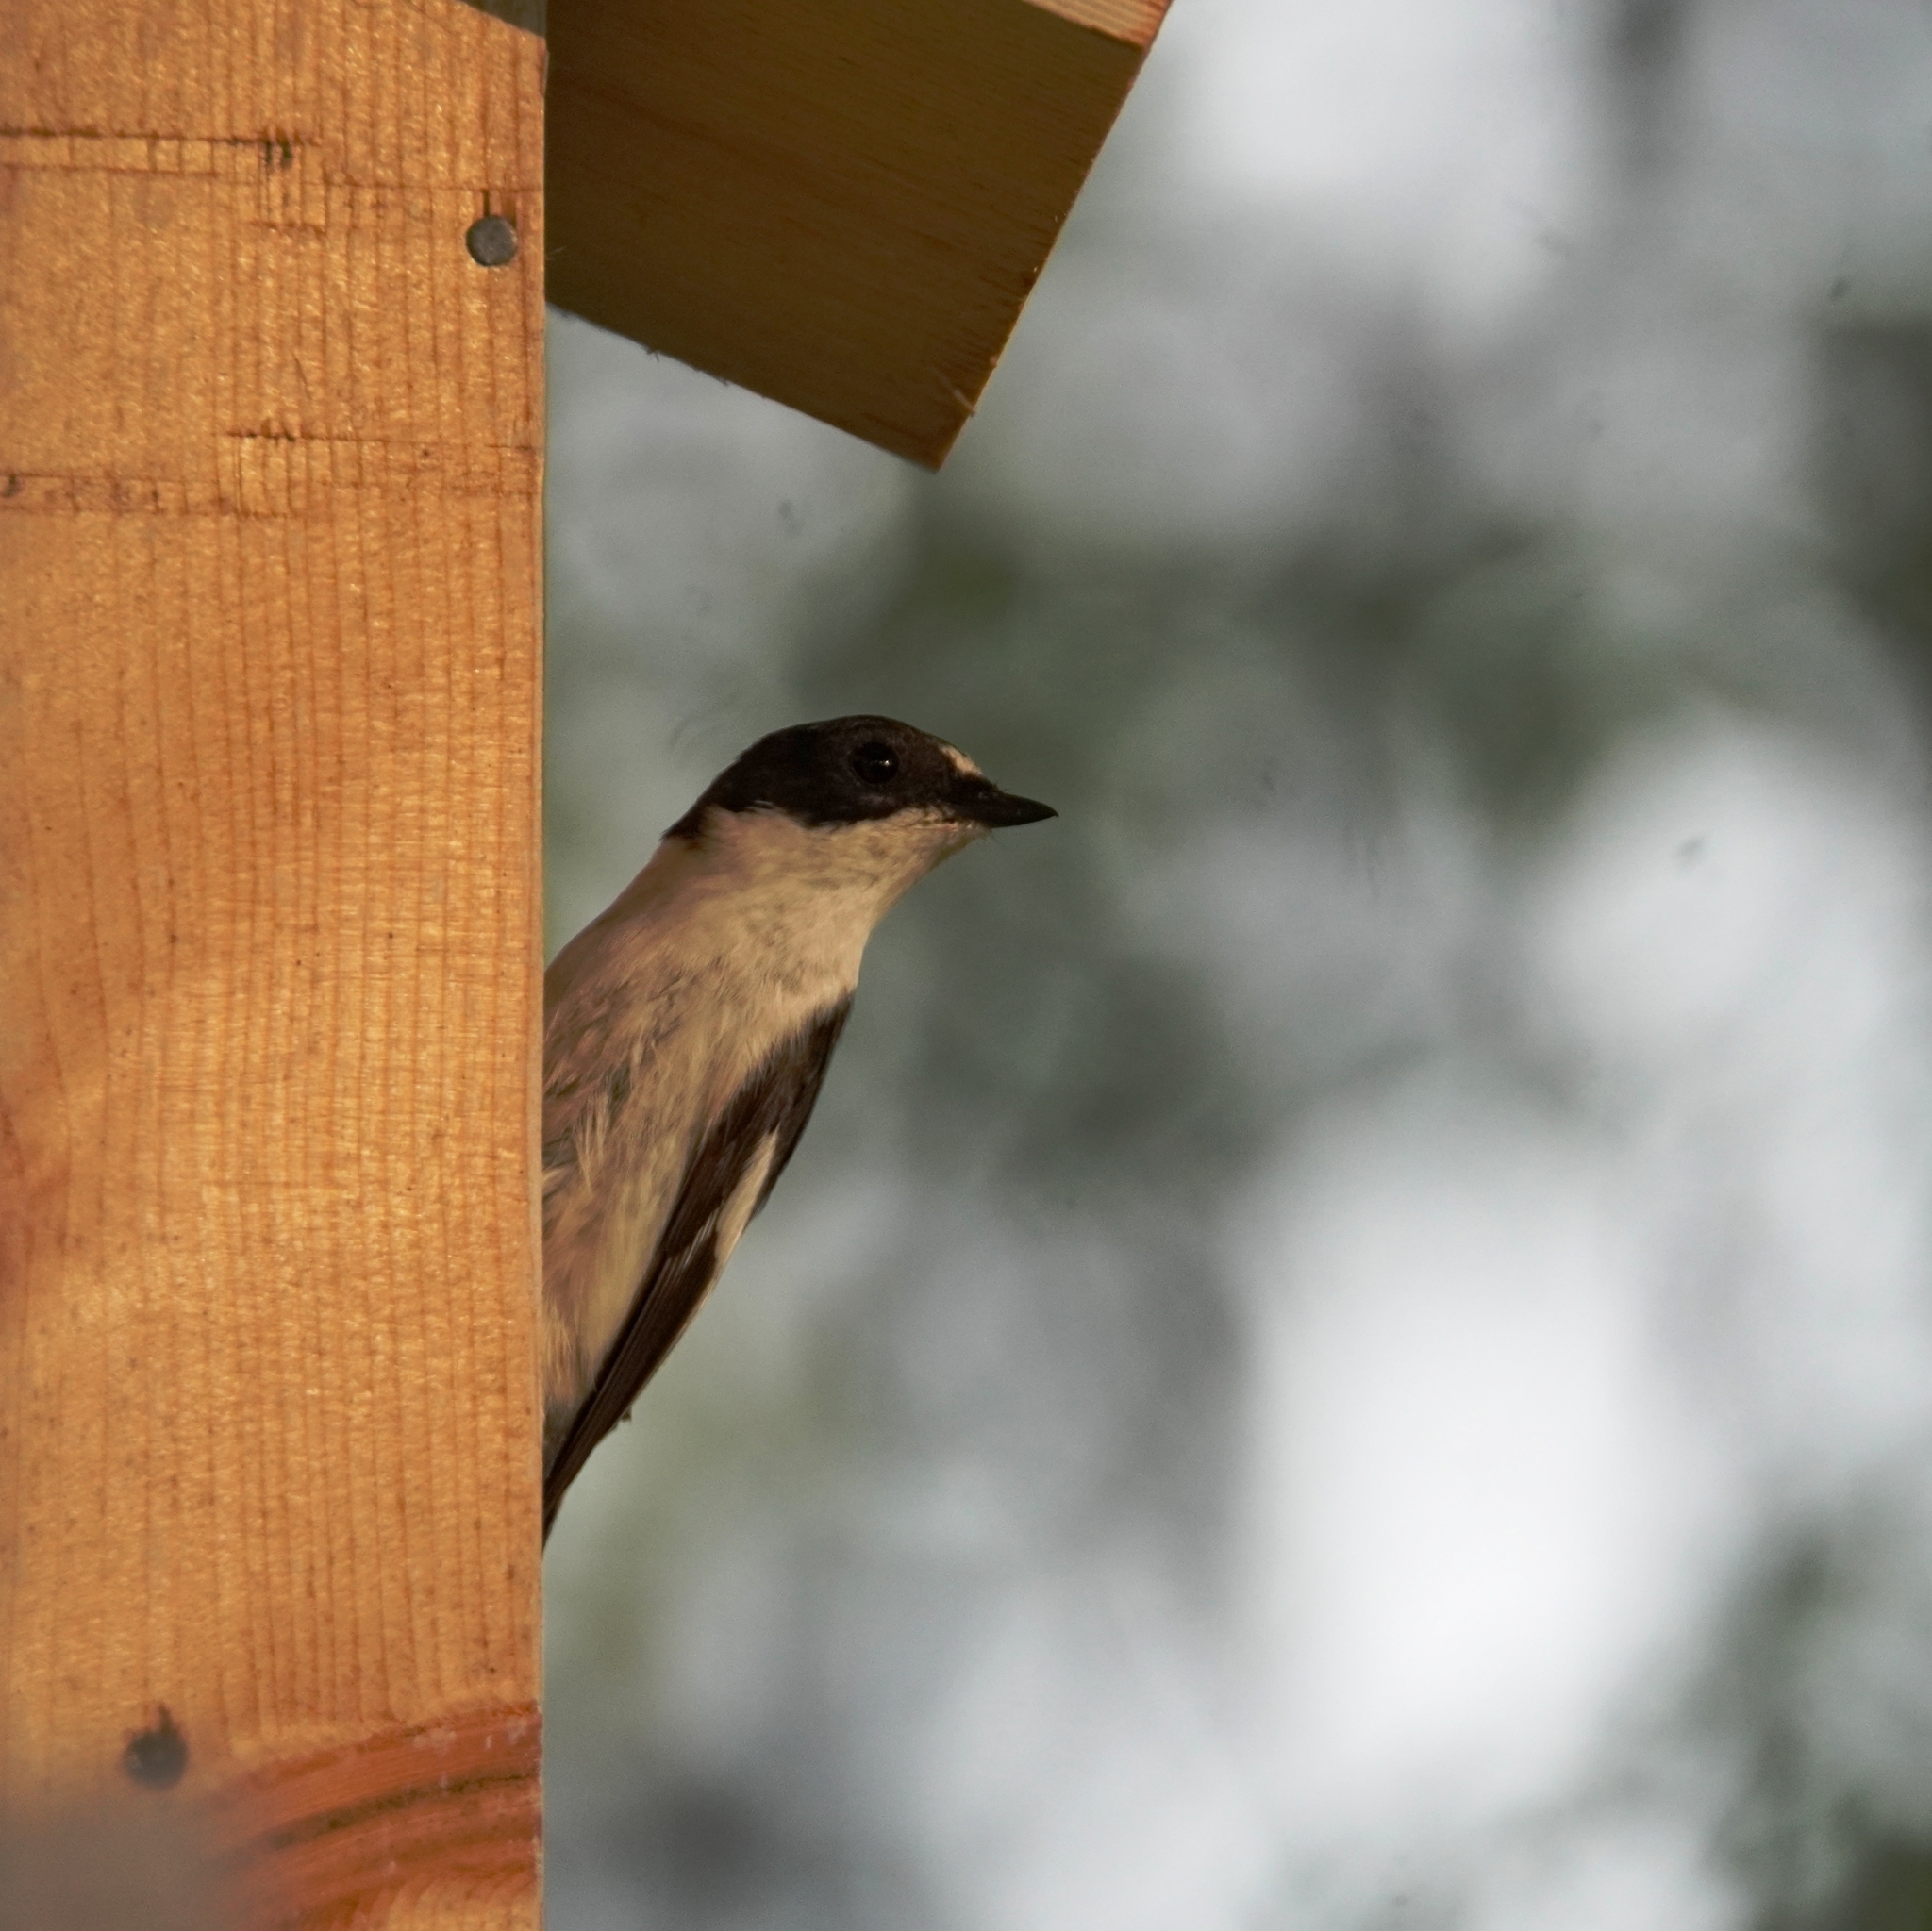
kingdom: Animalia
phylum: Chordata
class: Aves
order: Passeriformes
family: Muscicapidae
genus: Ficedula
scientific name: Ficedula hypoleuca
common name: European pied flycatcher
